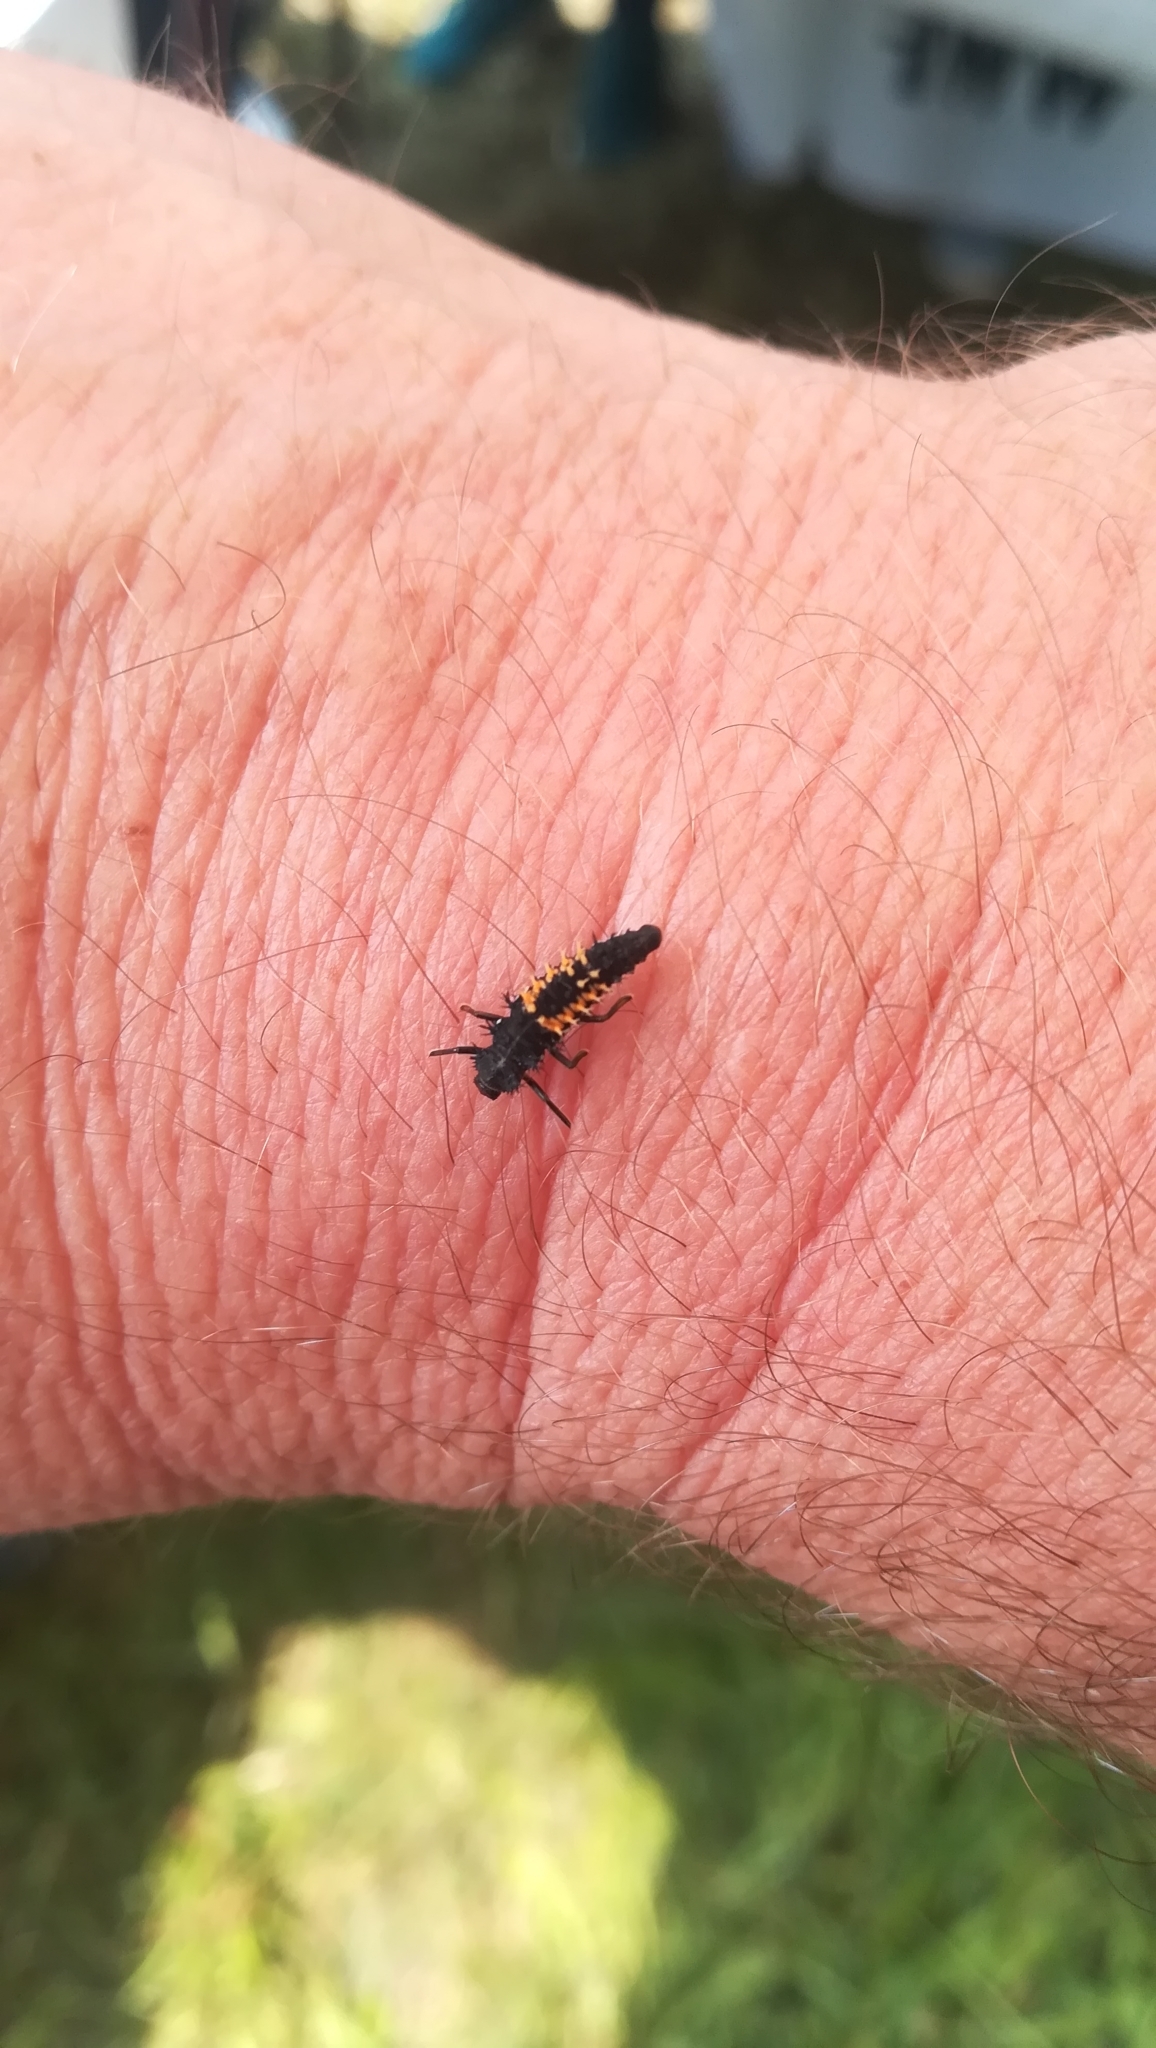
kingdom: Animalia
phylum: Arthropoda
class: Insecta
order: Coleoptera
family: Coccinellidae
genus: Harmonia
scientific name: Harmonia axyridis
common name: Harlequin ladybird
